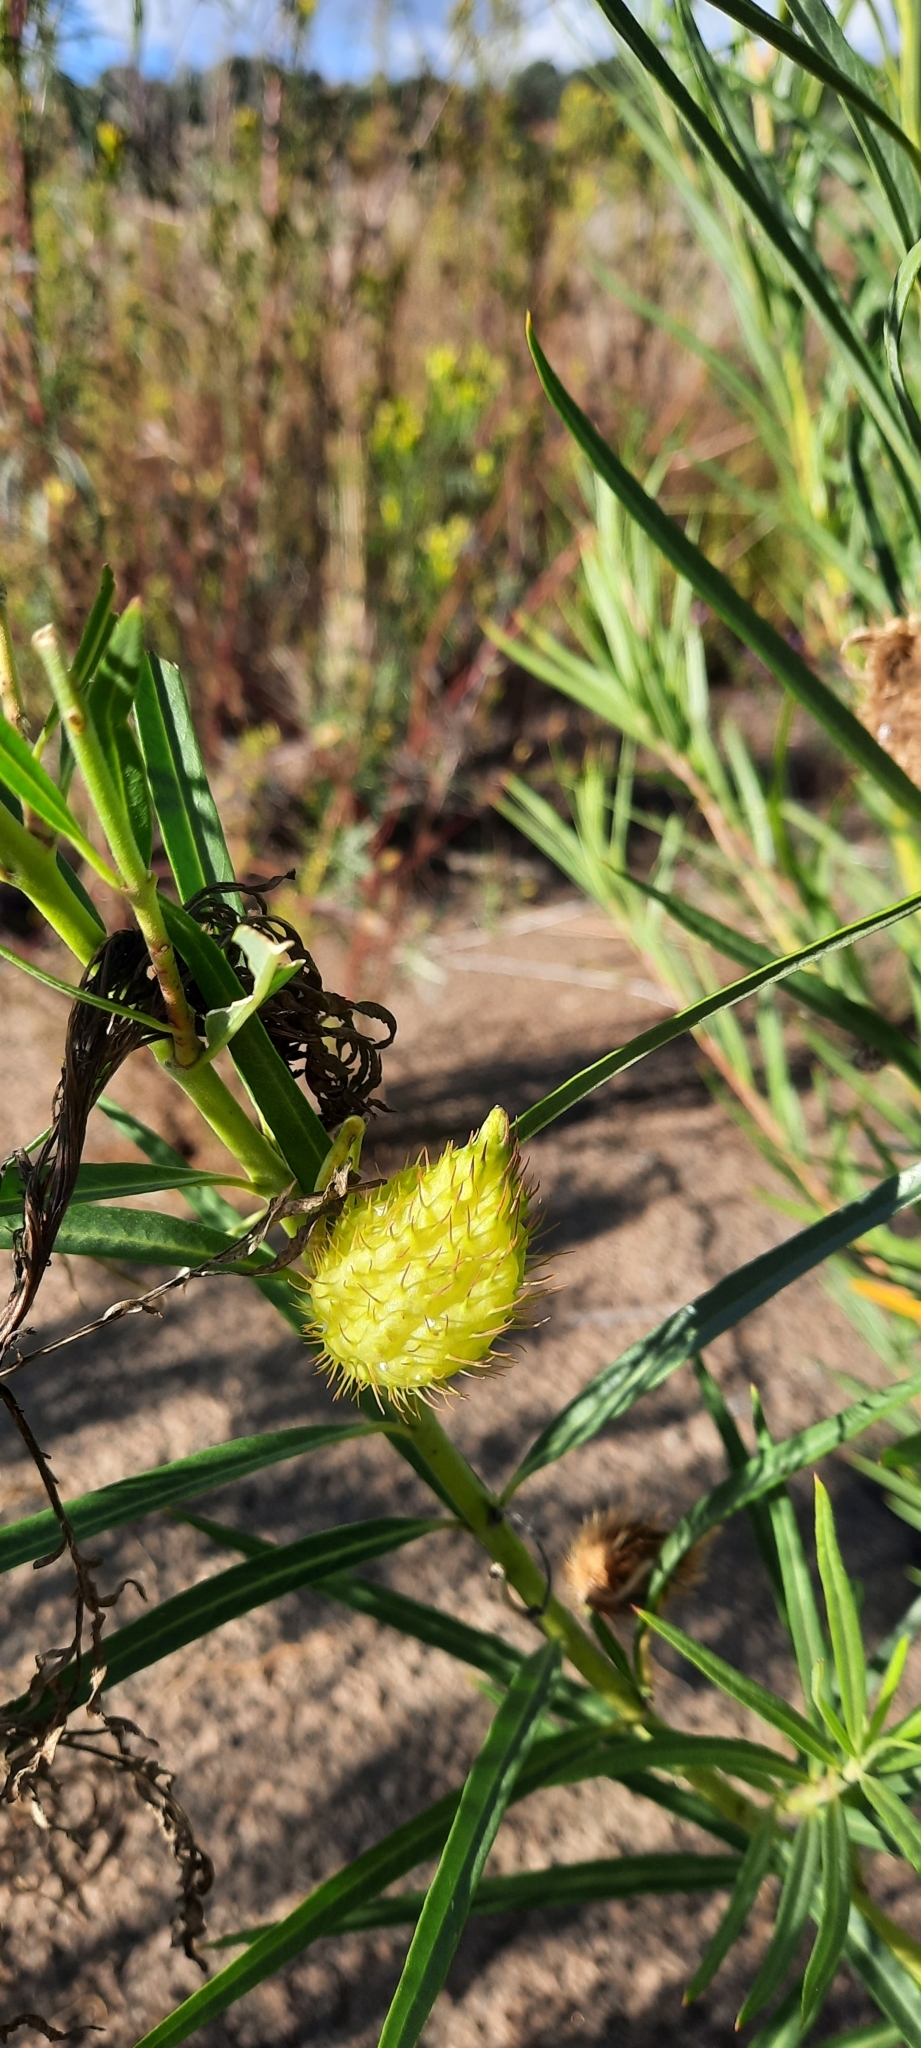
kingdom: Plantae
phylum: Tracheophyta
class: Magnoliopsida
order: Gentianales
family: Apocynaceae
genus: Gomphocarpus
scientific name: Gomphocarpus fruticosus
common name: Milkweed
